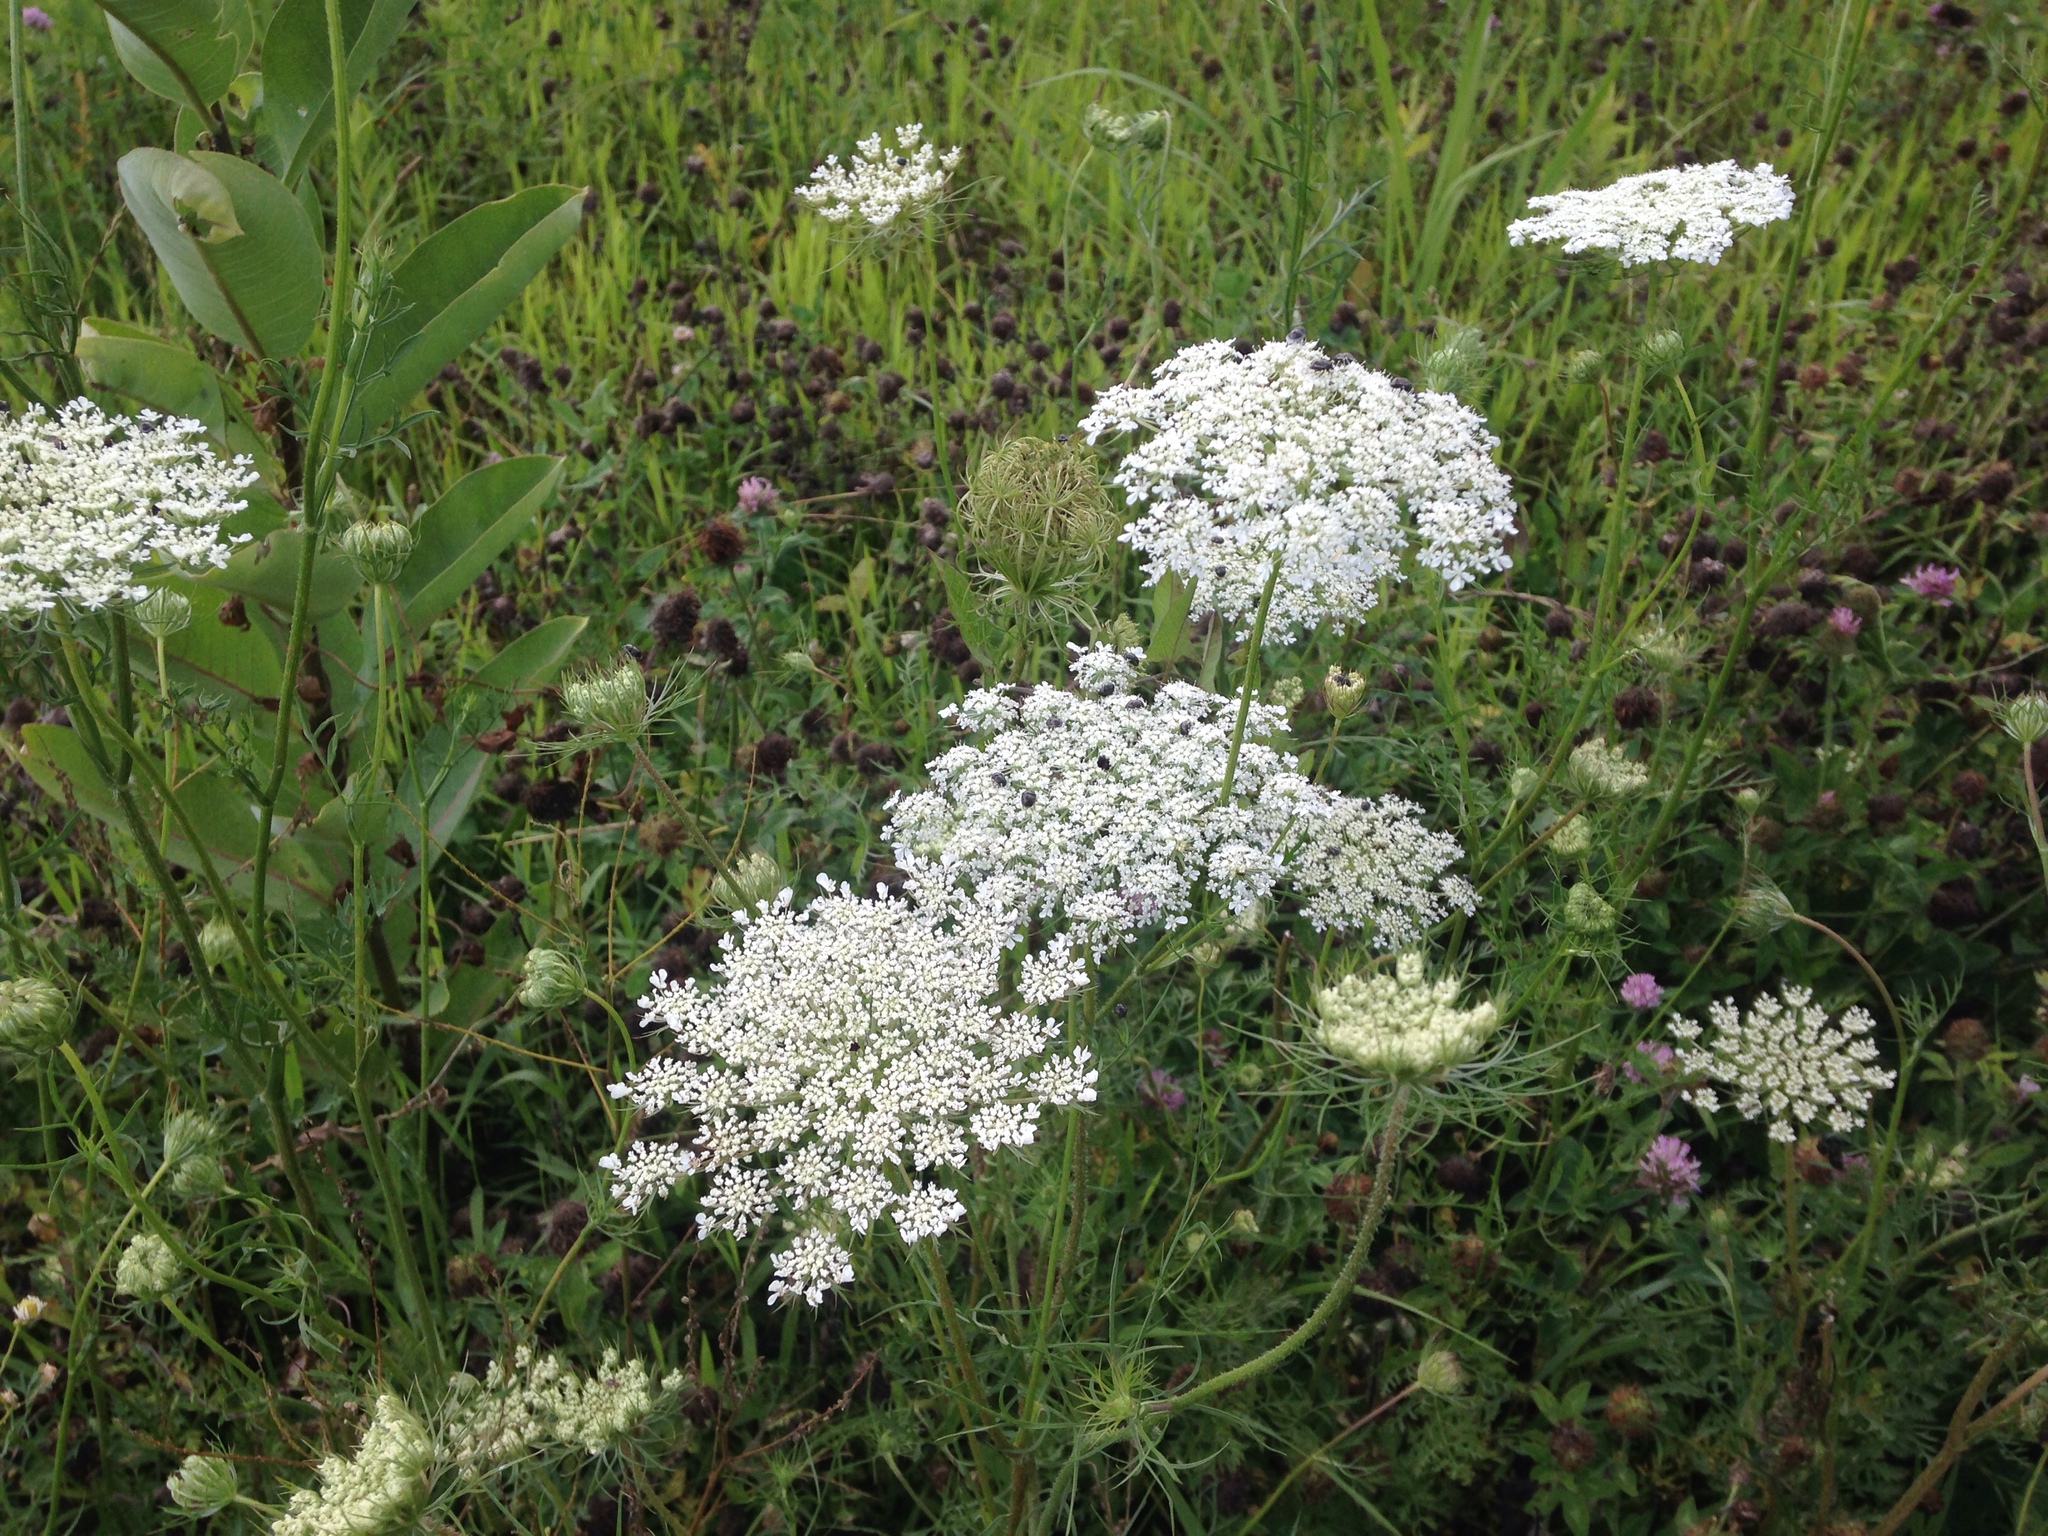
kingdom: Plantae
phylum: Tracheophyta
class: Magnoliopsida
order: Apiales
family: Apiaceae
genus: Daucus
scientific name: Daucus carota
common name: Wild carrot
